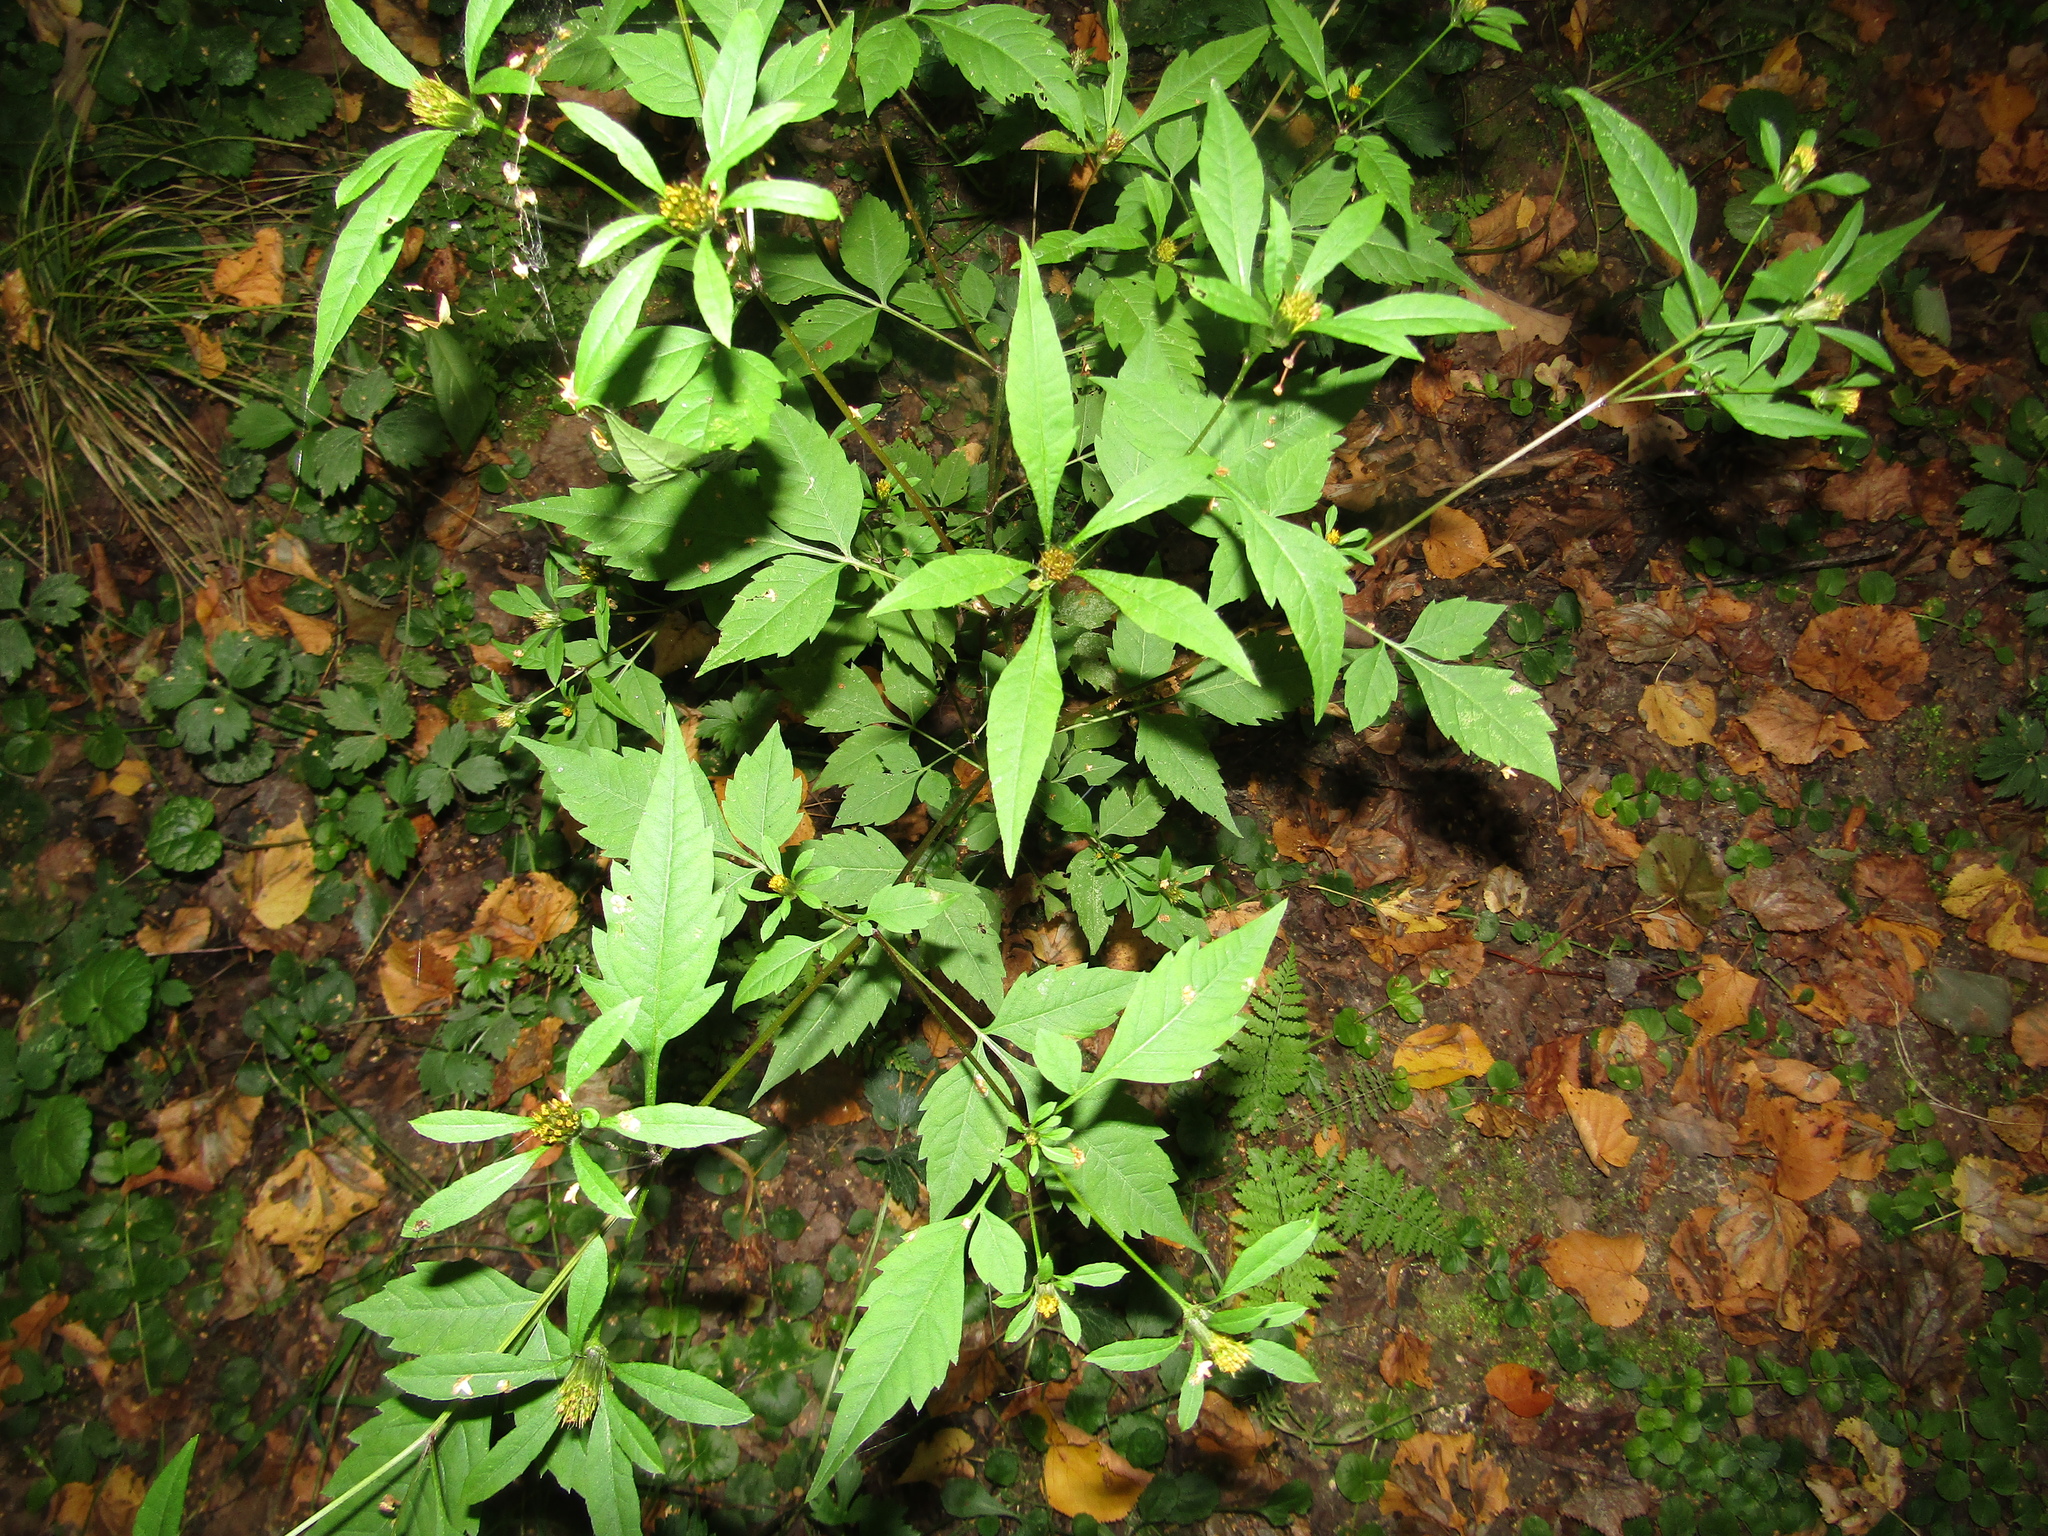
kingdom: Plantae
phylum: Tracheophyta
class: Magnoliopsida
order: Asterales
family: Asteraceae
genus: Bidens
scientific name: Bidens frondosa
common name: Beggarticks
